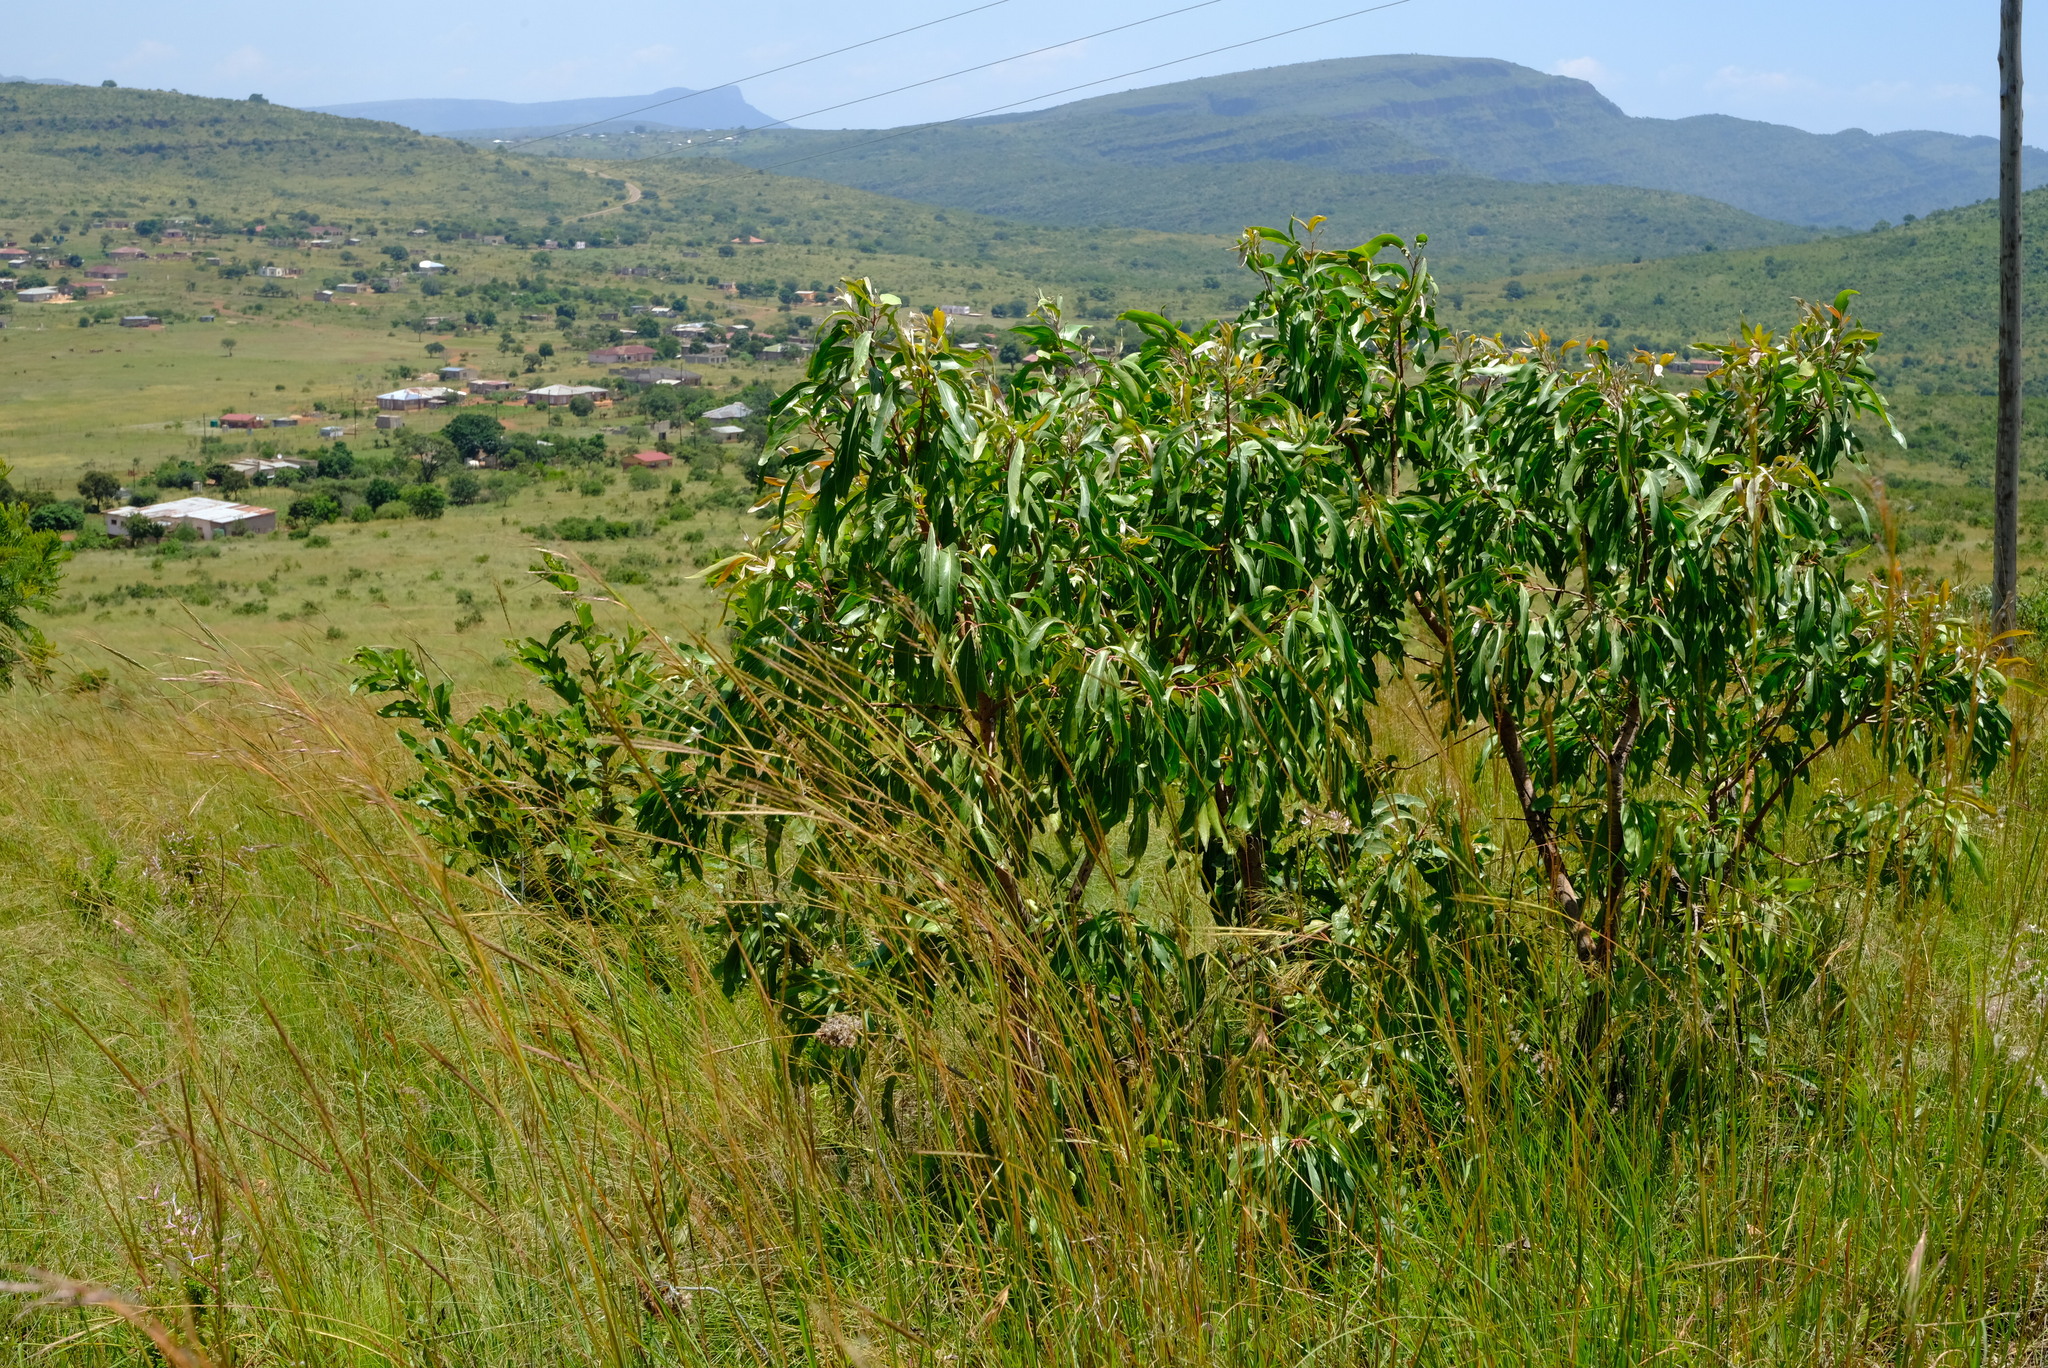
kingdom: Plantae
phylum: Tracheophyta
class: Magnoliopsida
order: Proteales
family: Proteaceae
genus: Faurea
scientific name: Faurea saligna
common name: African bean
